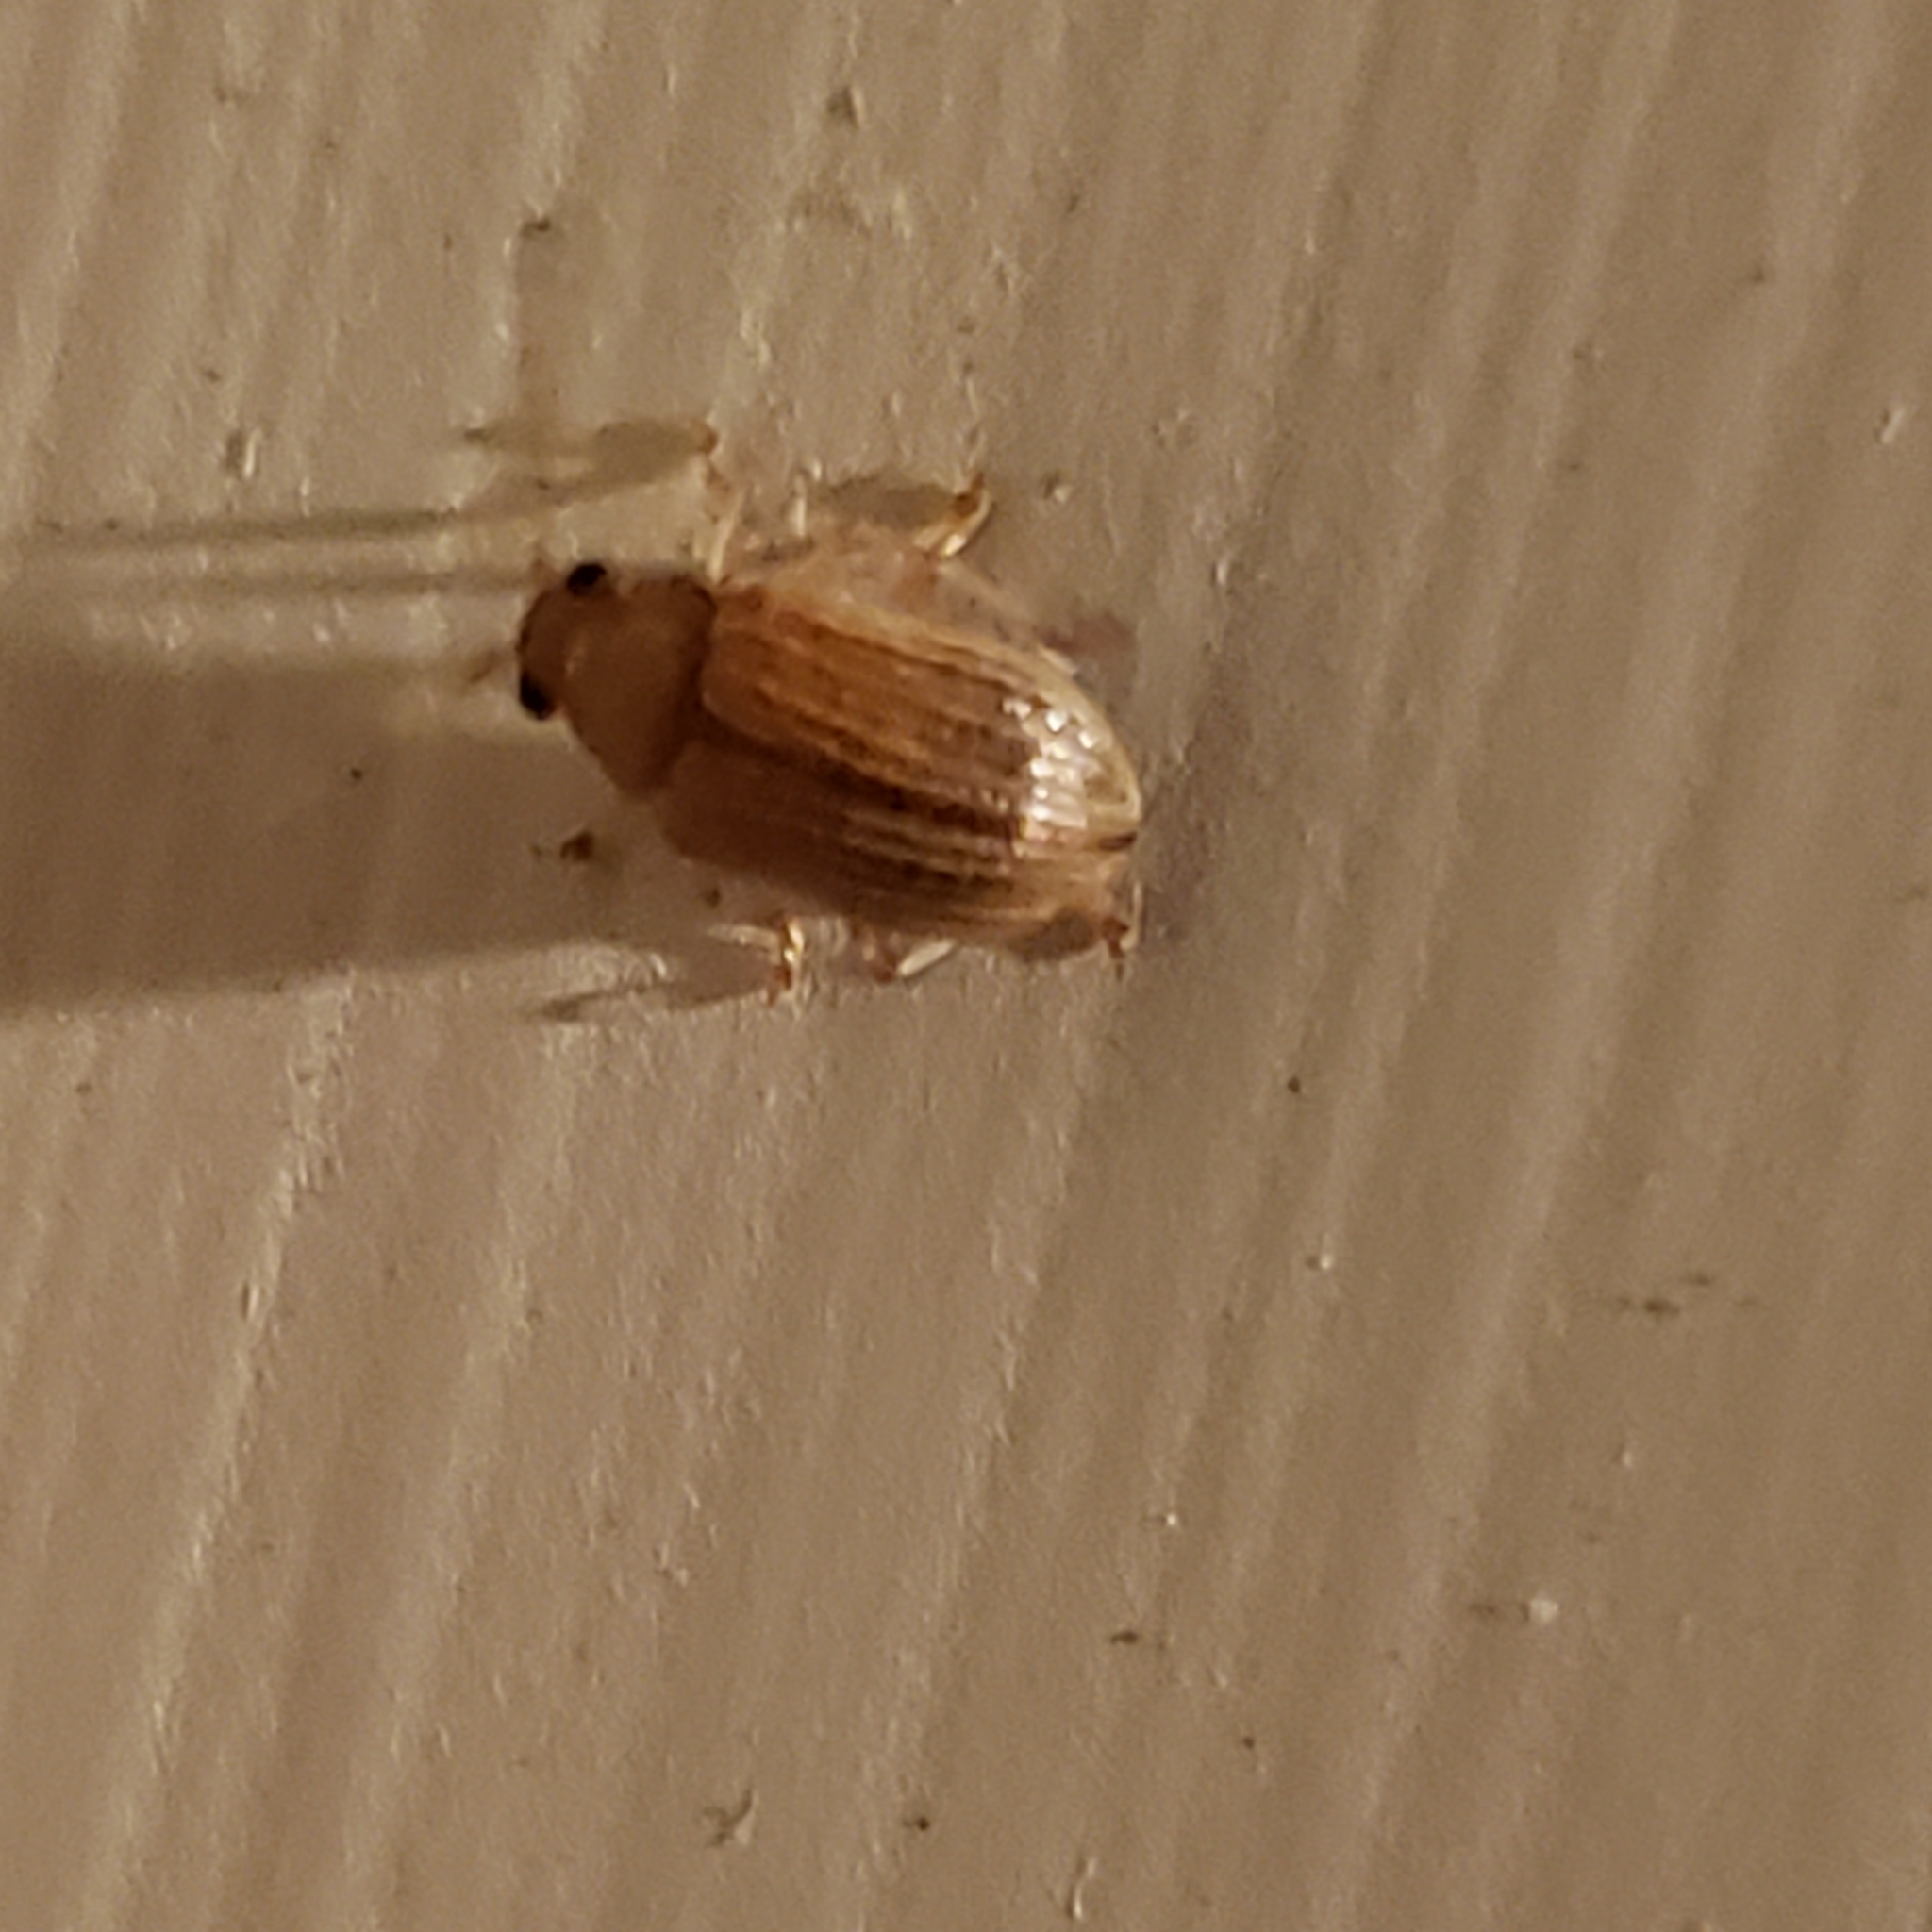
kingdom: Animalia
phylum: Arthropoda
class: Insecta
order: Coleoptera
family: Chrysomelidae
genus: Colaspis
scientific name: Colaspis brunnea
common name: Grape colaspis
